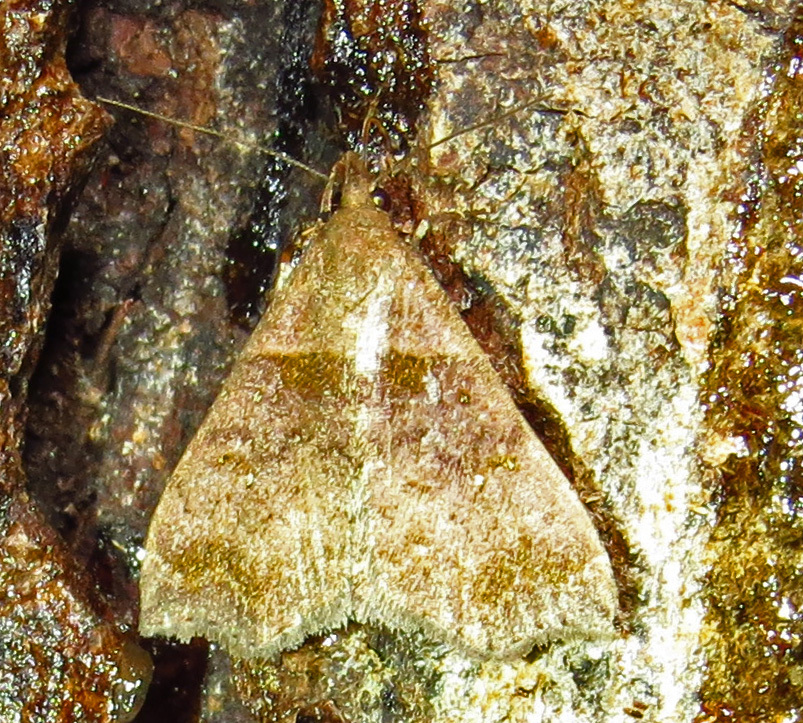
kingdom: Animalia
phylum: Arthropoda
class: Insecta
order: Lepidoptera
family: Erebidae
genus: Lascoria
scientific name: Lascoria ambigualis
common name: Ambiguous moth
